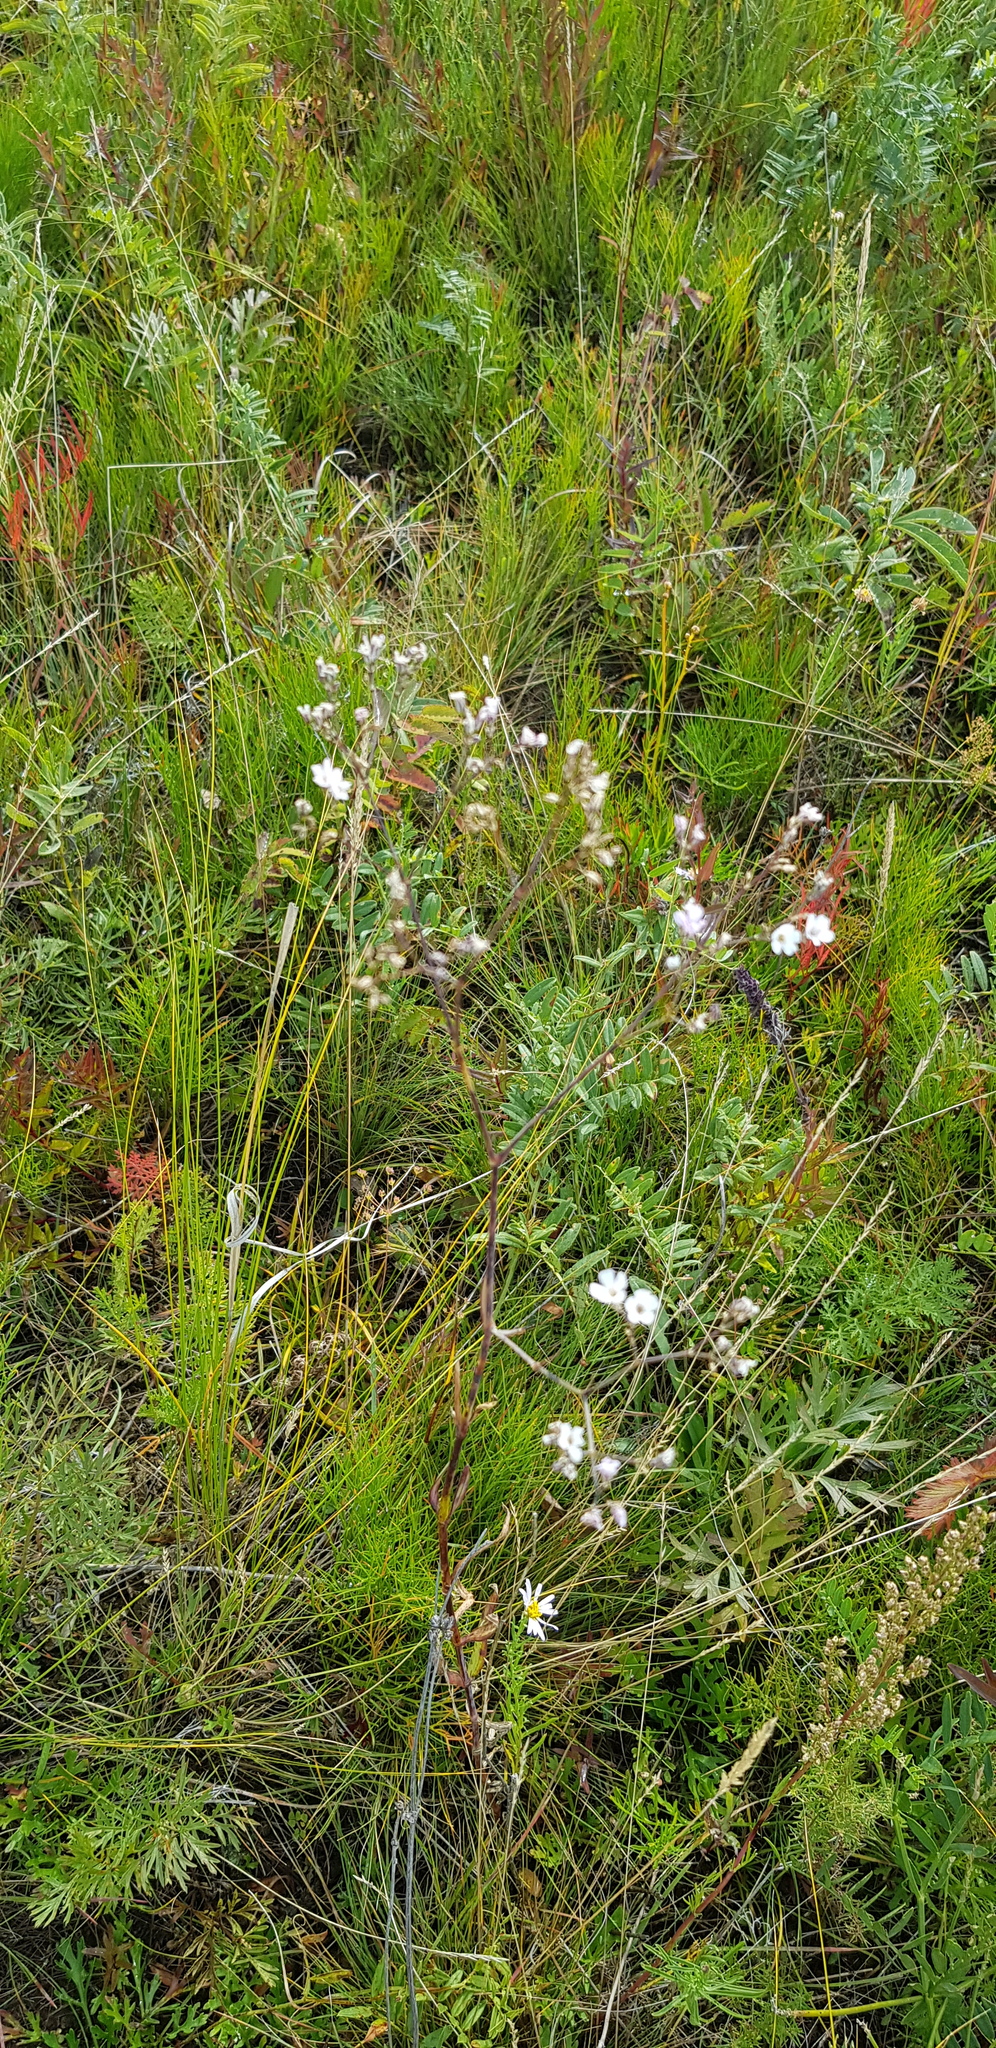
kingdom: Plantae
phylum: Tracheophyta
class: Magnoliopsida
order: Caryophyllales
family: Caryophyllaceae
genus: Gypsophila
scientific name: Gypsophila paniculata
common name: Baby's-breath
